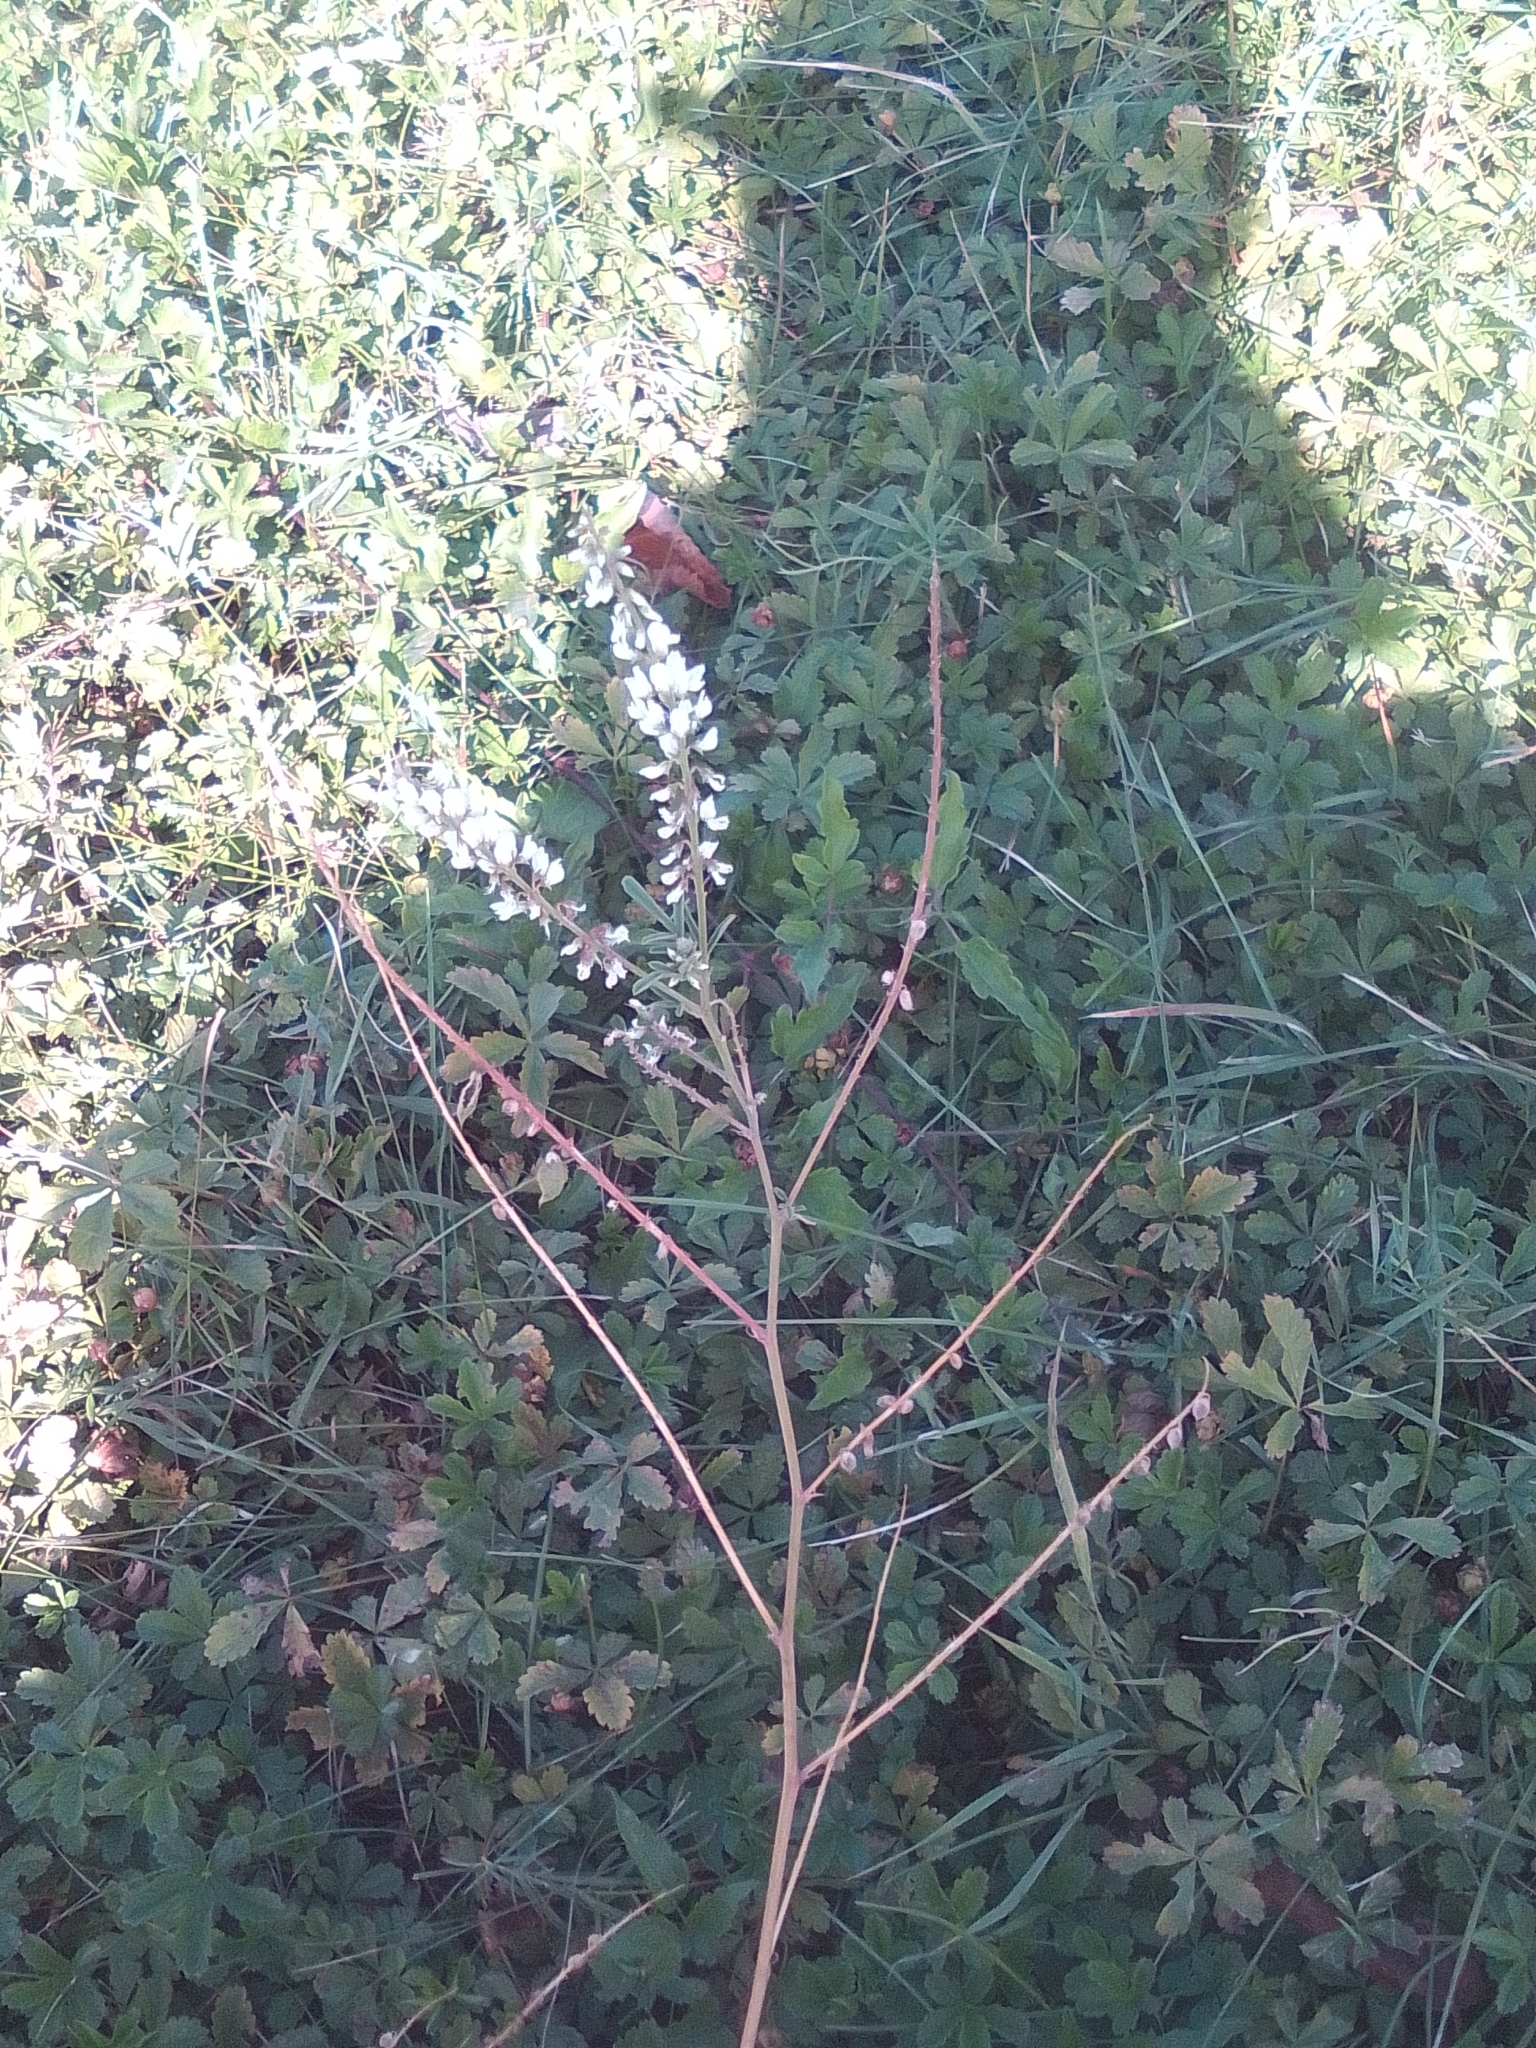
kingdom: Plantae
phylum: Tracheophyta
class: Magnoliopsida
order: Fabales
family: Fabaceae
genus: Melilotus
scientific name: Melilotus albus
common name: White melilot
